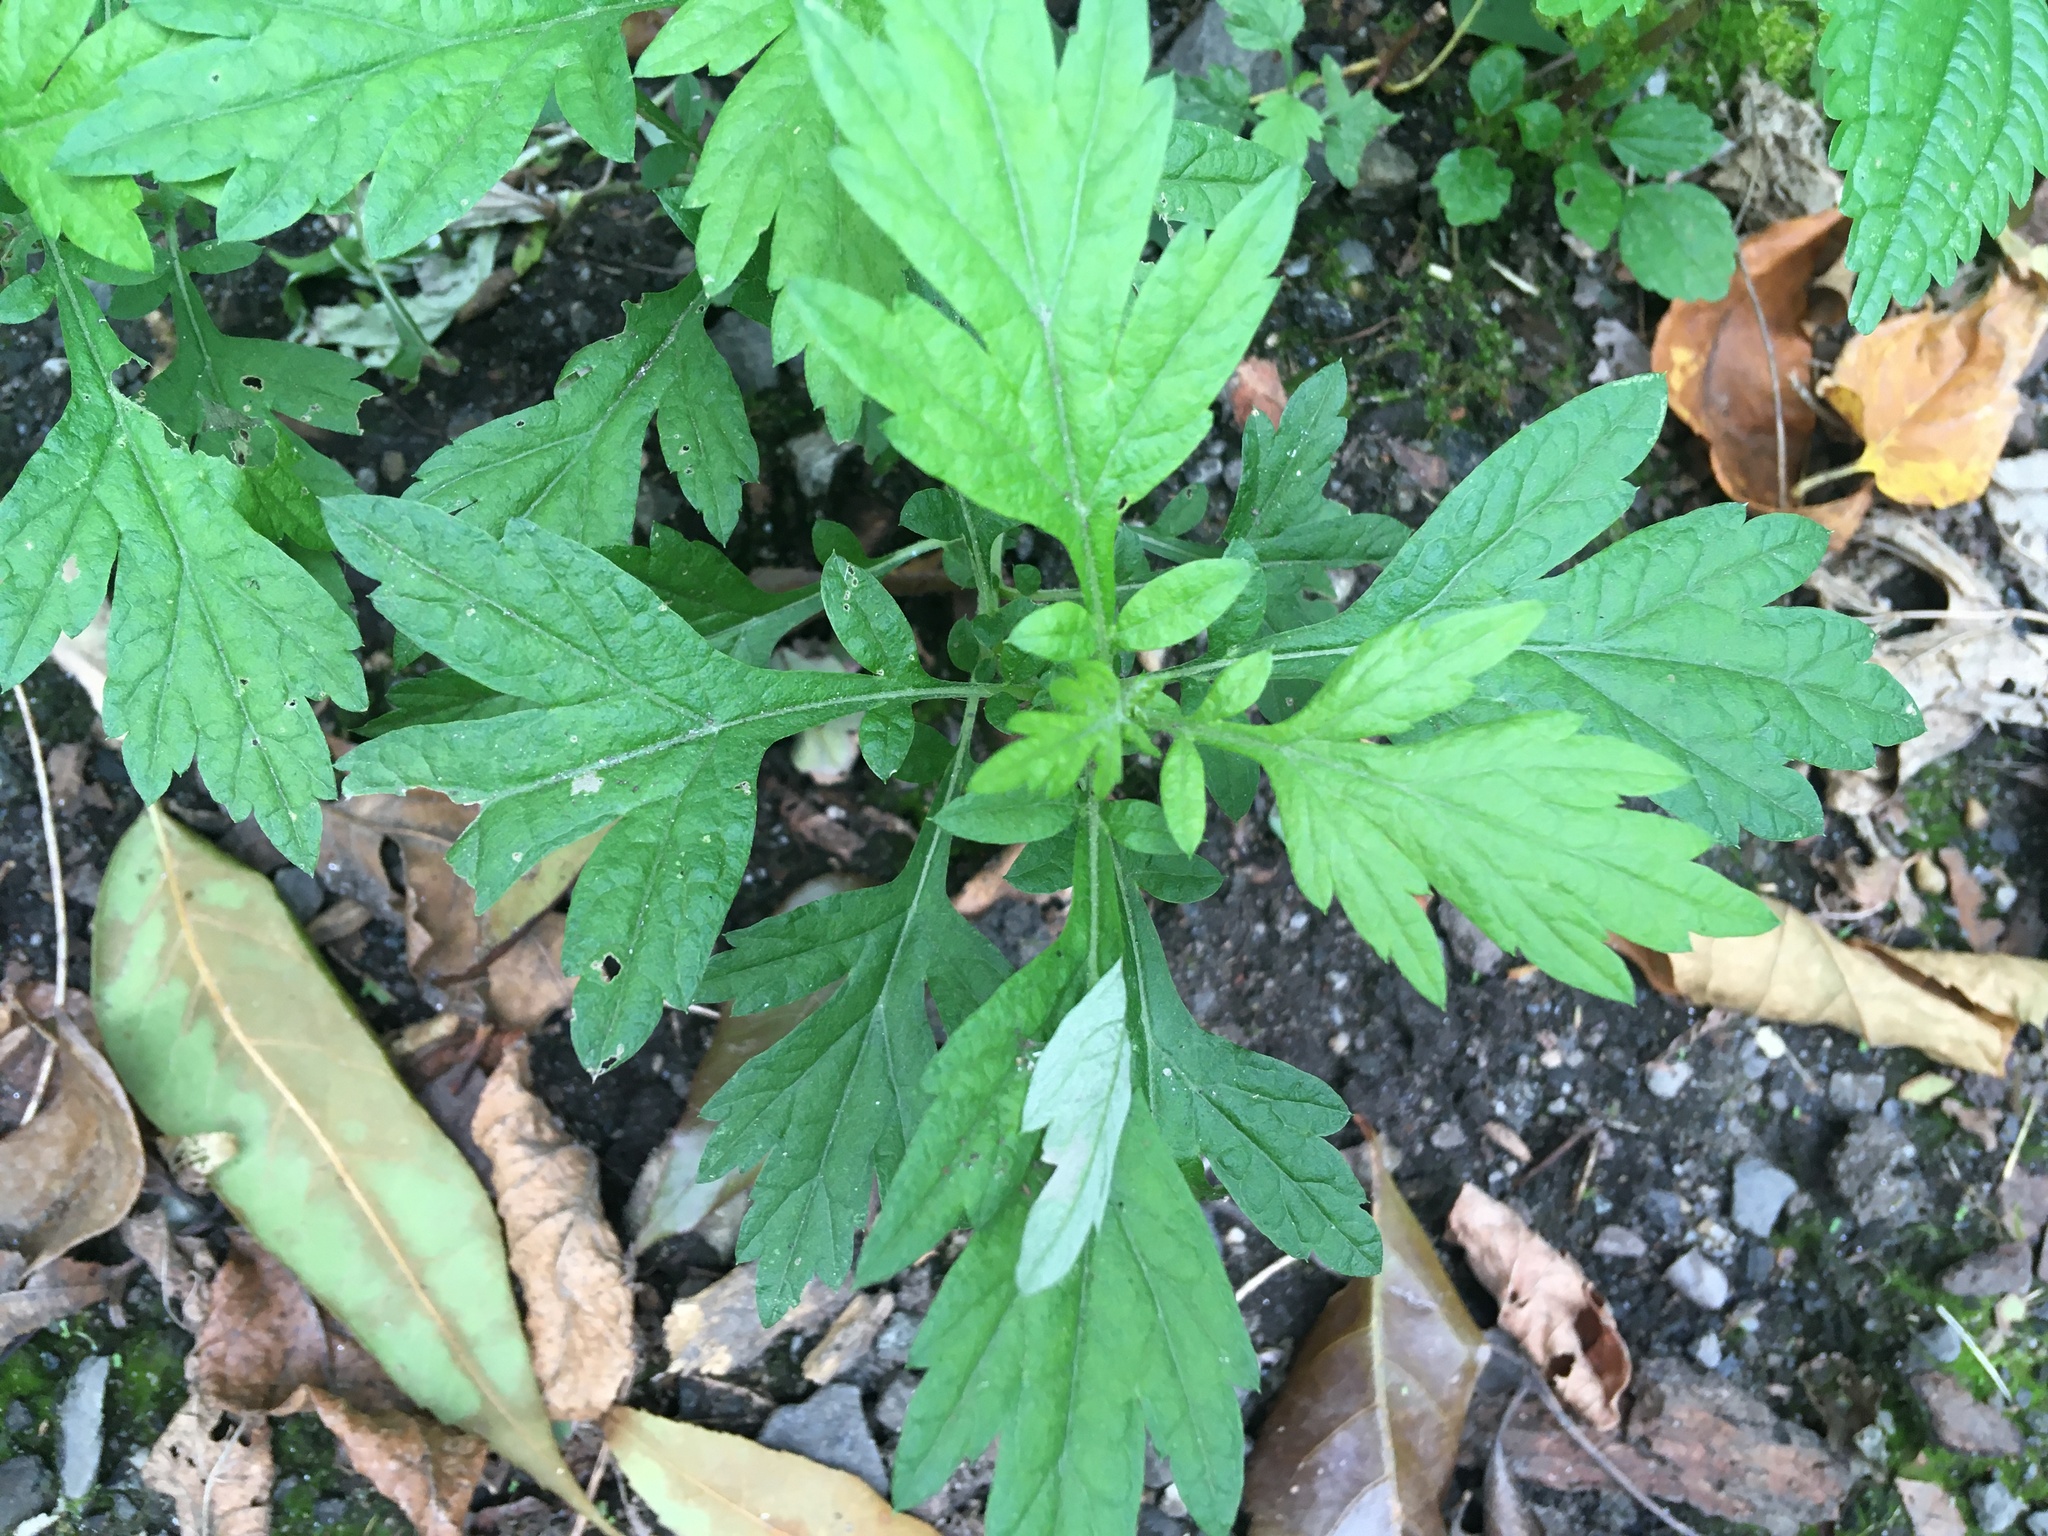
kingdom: Plantae
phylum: Tracheophyta
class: Magnoliopsida
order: Asterales
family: Asteraceae
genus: Artemisia
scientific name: Artemisia vulgaris
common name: Mugwort
